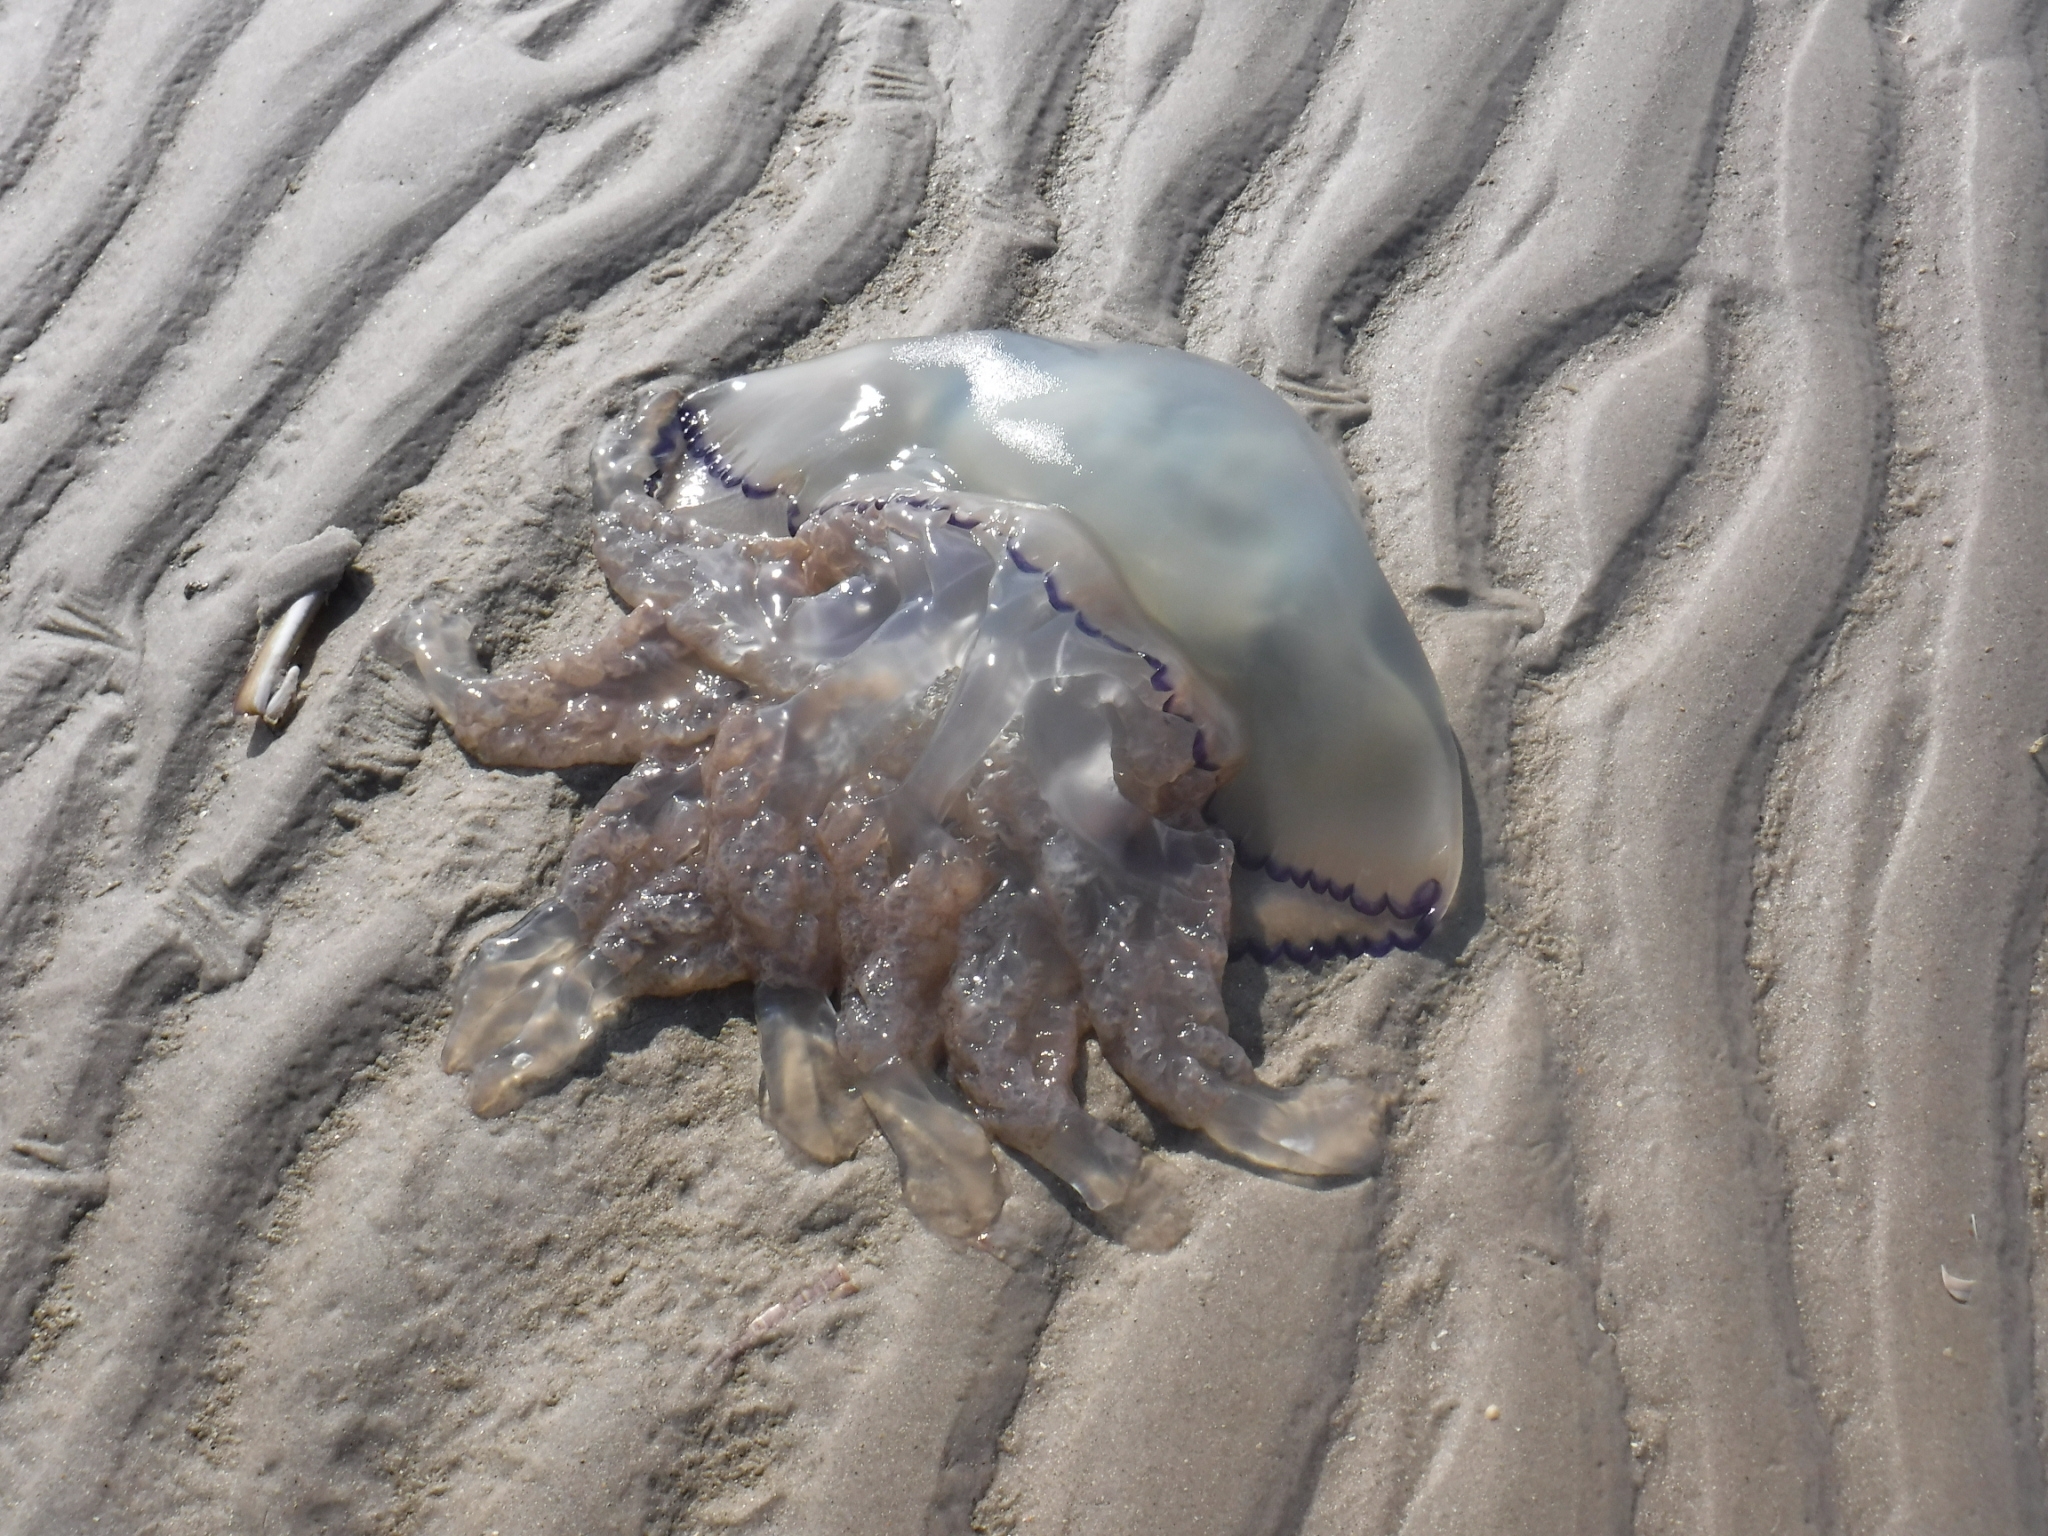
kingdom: Animalia
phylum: Cnidaria
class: Scyphozoa
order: Rhizostomeae
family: Rhizostomatidae
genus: Rhizostoma
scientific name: Rhizostoma octopus
